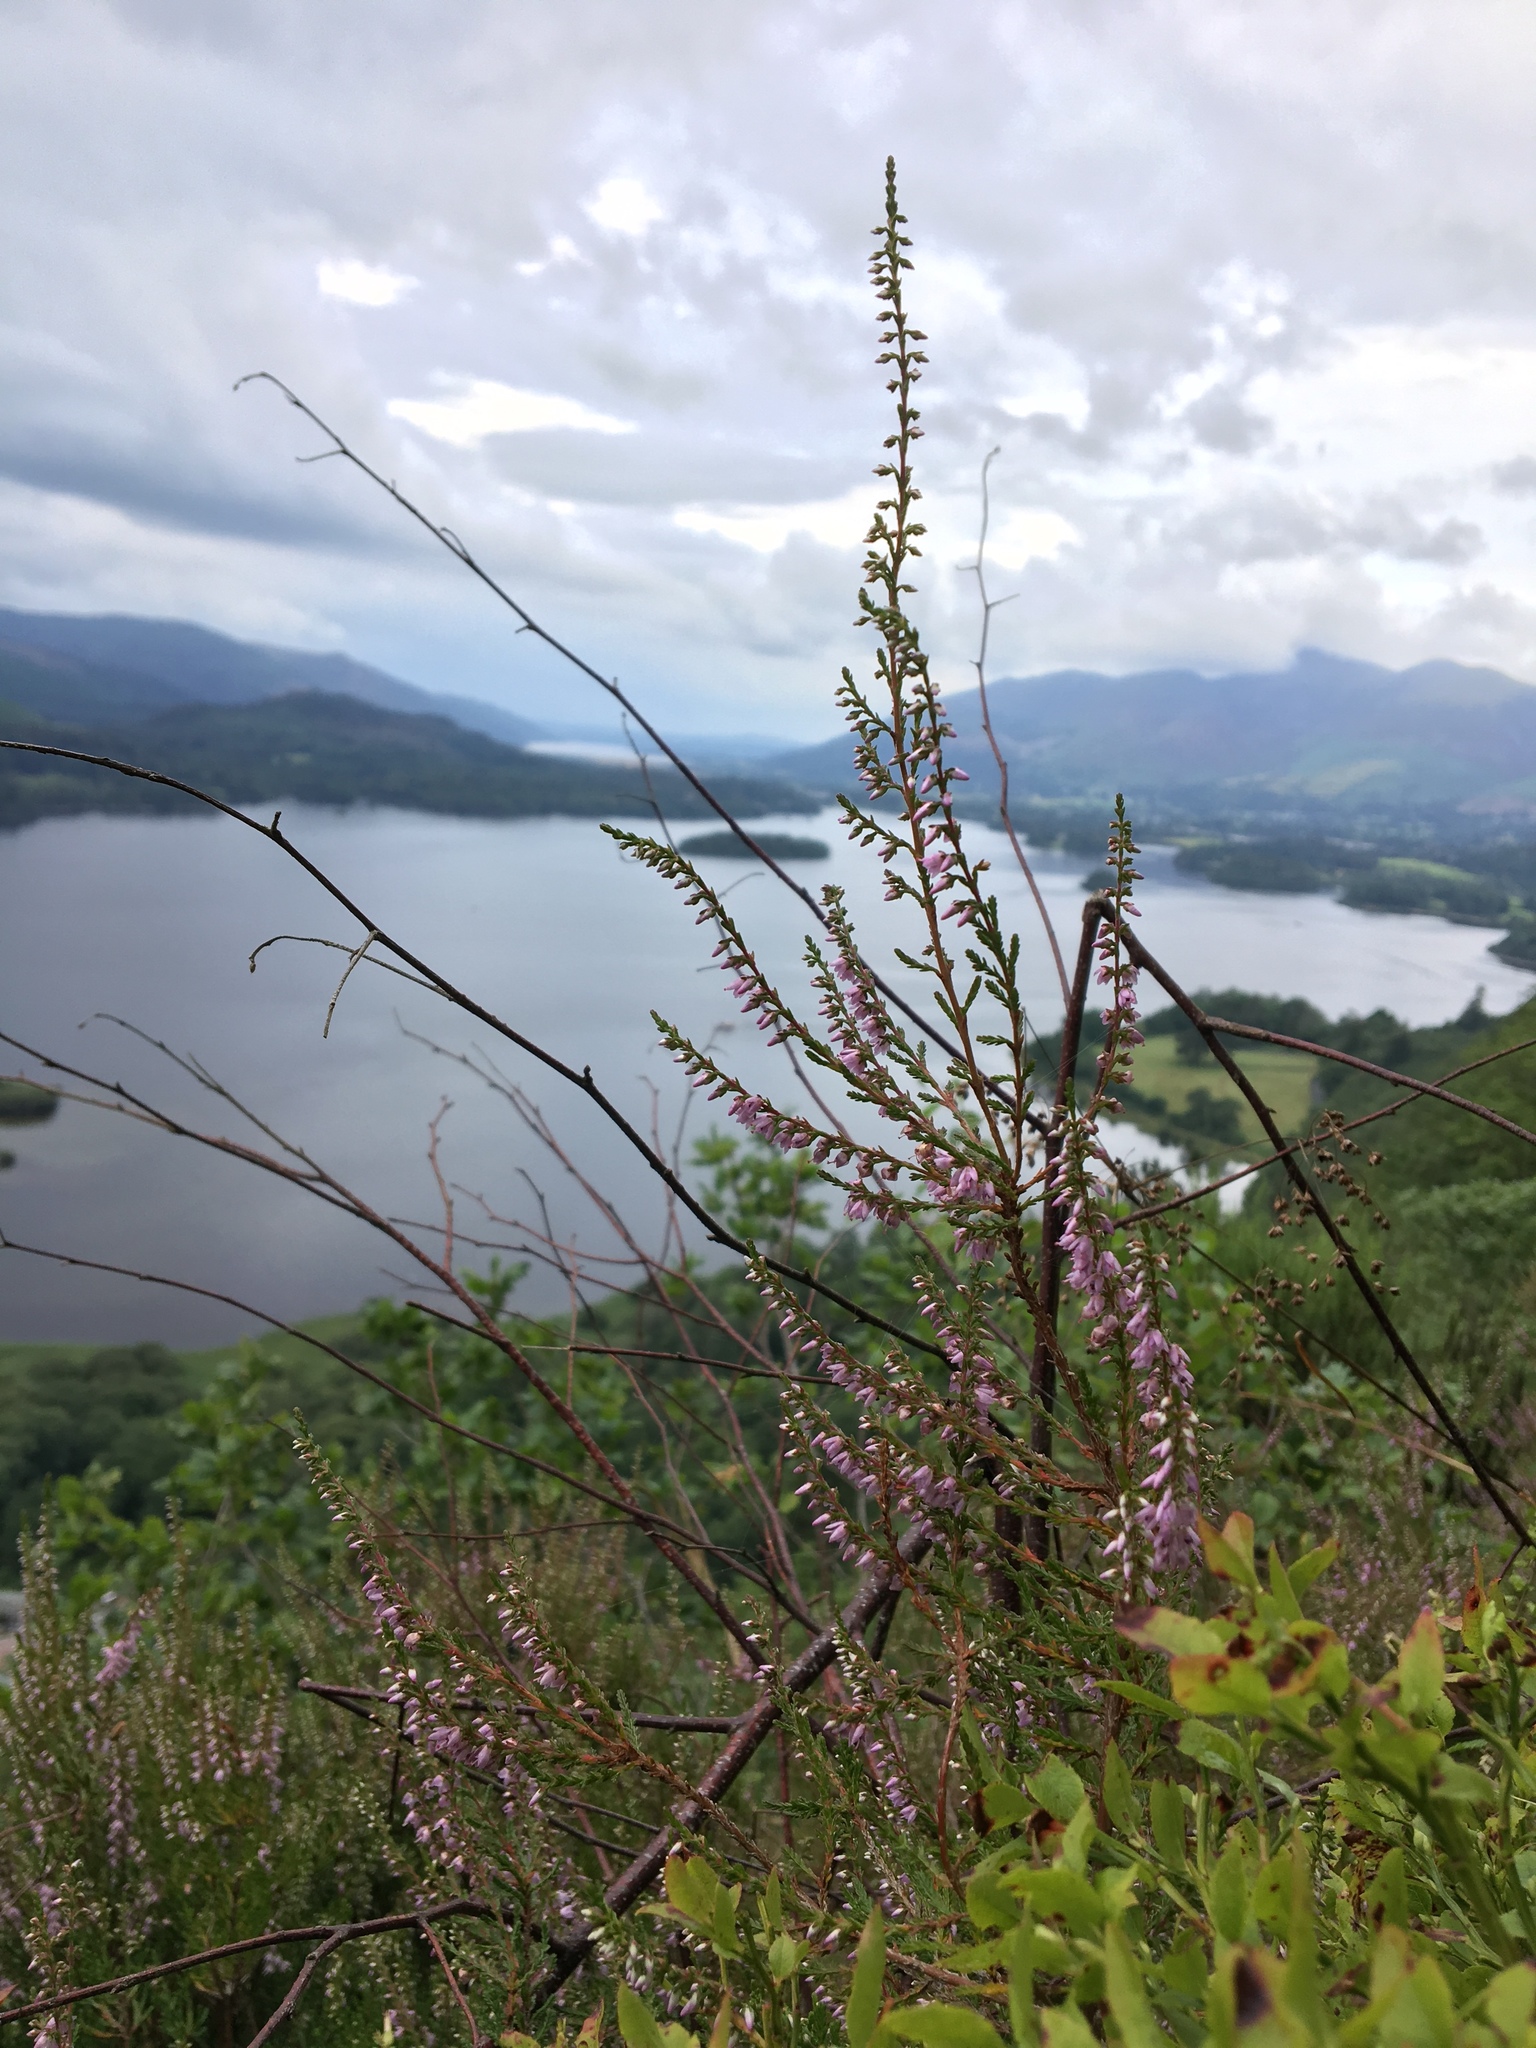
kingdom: Plantae
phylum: Tracheophyta
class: Magnoliopsida
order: Ericales
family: Ericaceae
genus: Calluna
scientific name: Calluna vulgaris
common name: Heather
